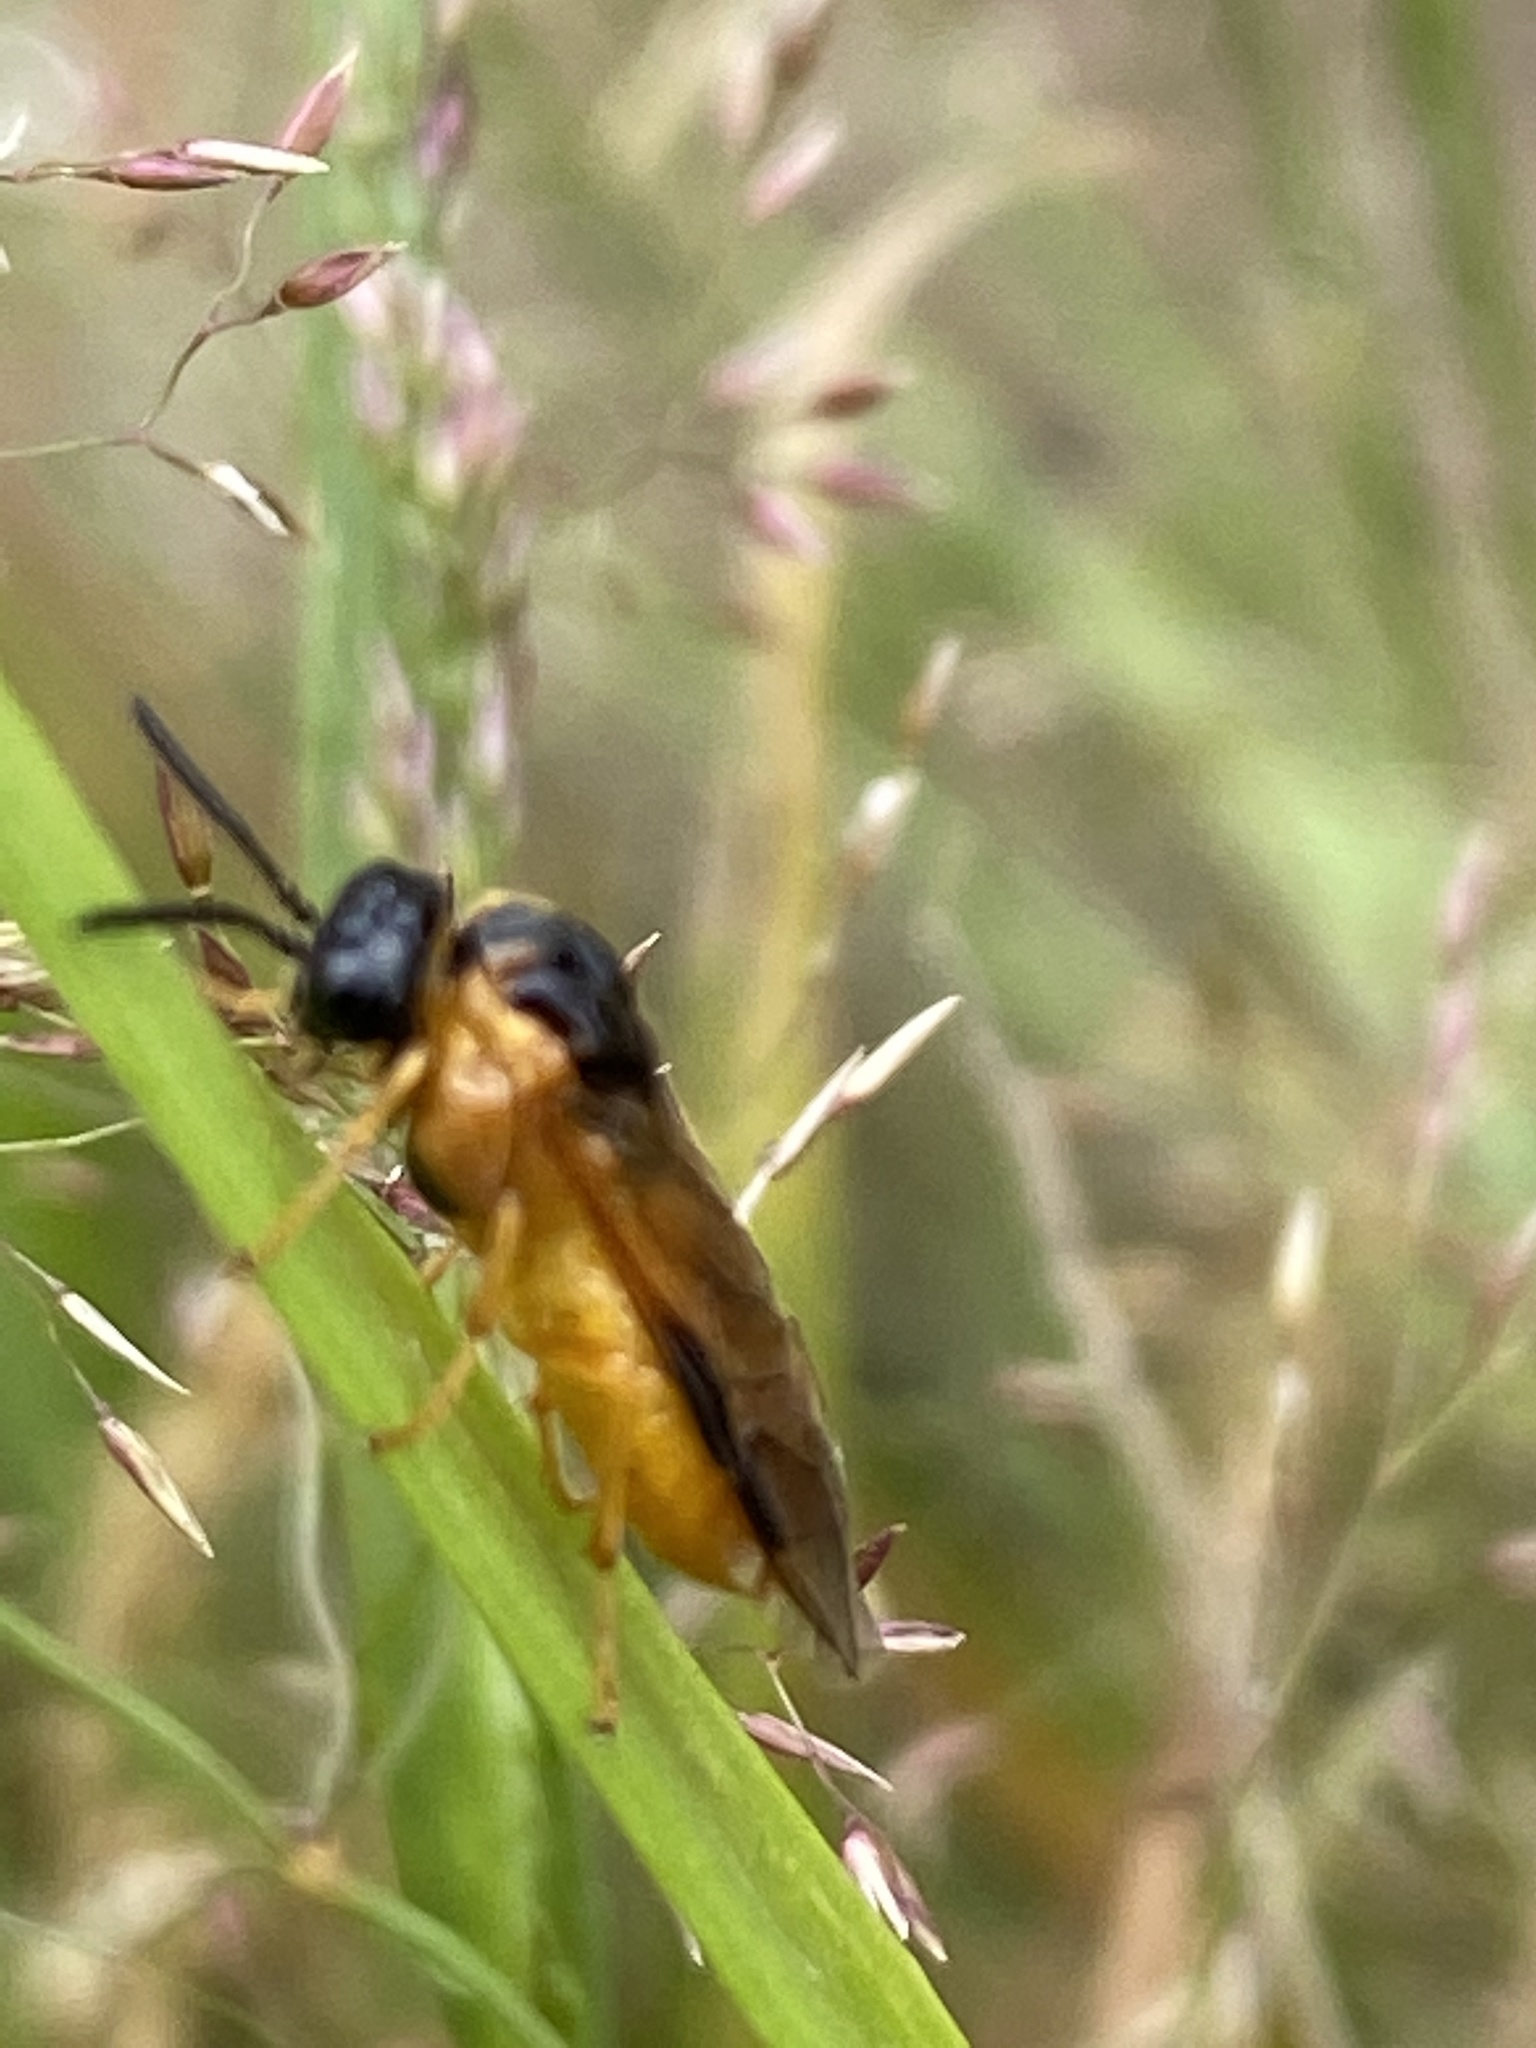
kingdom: Animalia
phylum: Arthropoda
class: Insecta
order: Hymenoptera
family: Tenthredinidae
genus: Selandria
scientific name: Selandria serva
